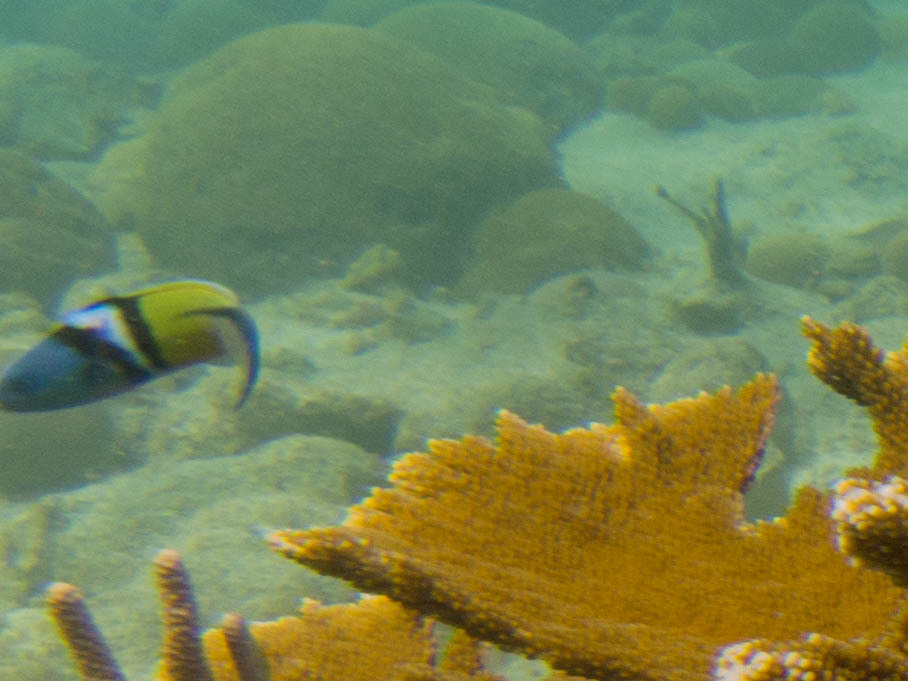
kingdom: Animalia
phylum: Chordata
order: Perciformes
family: Labridae
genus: Thalassoma
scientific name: Thalassoma bifasciatum
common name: Bluehead wrasse
